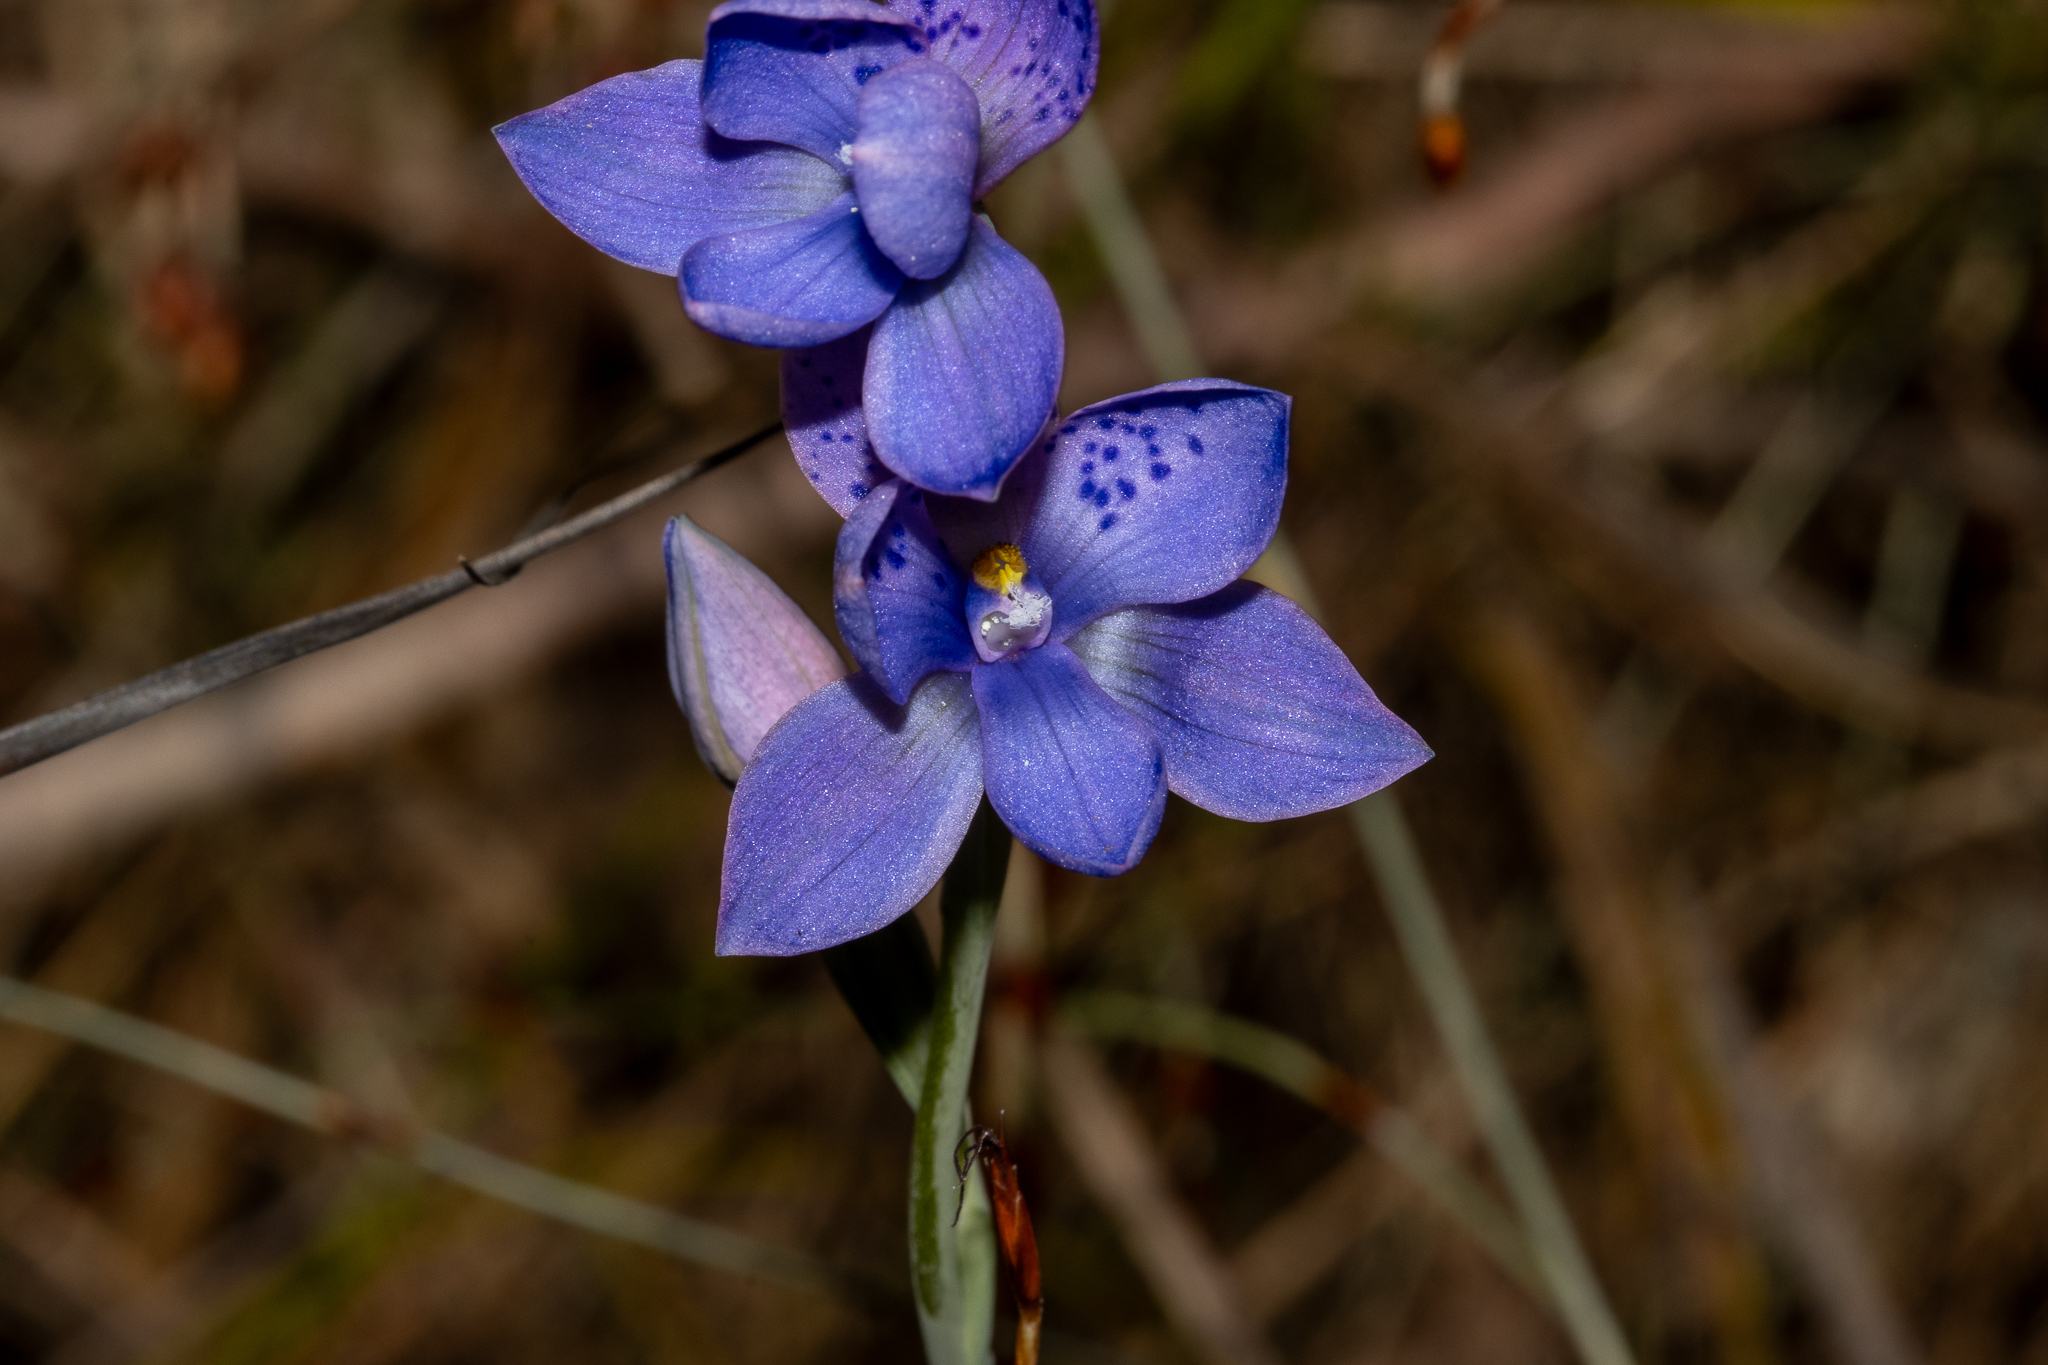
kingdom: Plantae
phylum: Tracheophyta
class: Liliopsida
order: Asparagales
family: Orchidaceae
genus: Thelymitra
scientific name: Thelymitra ixioides
